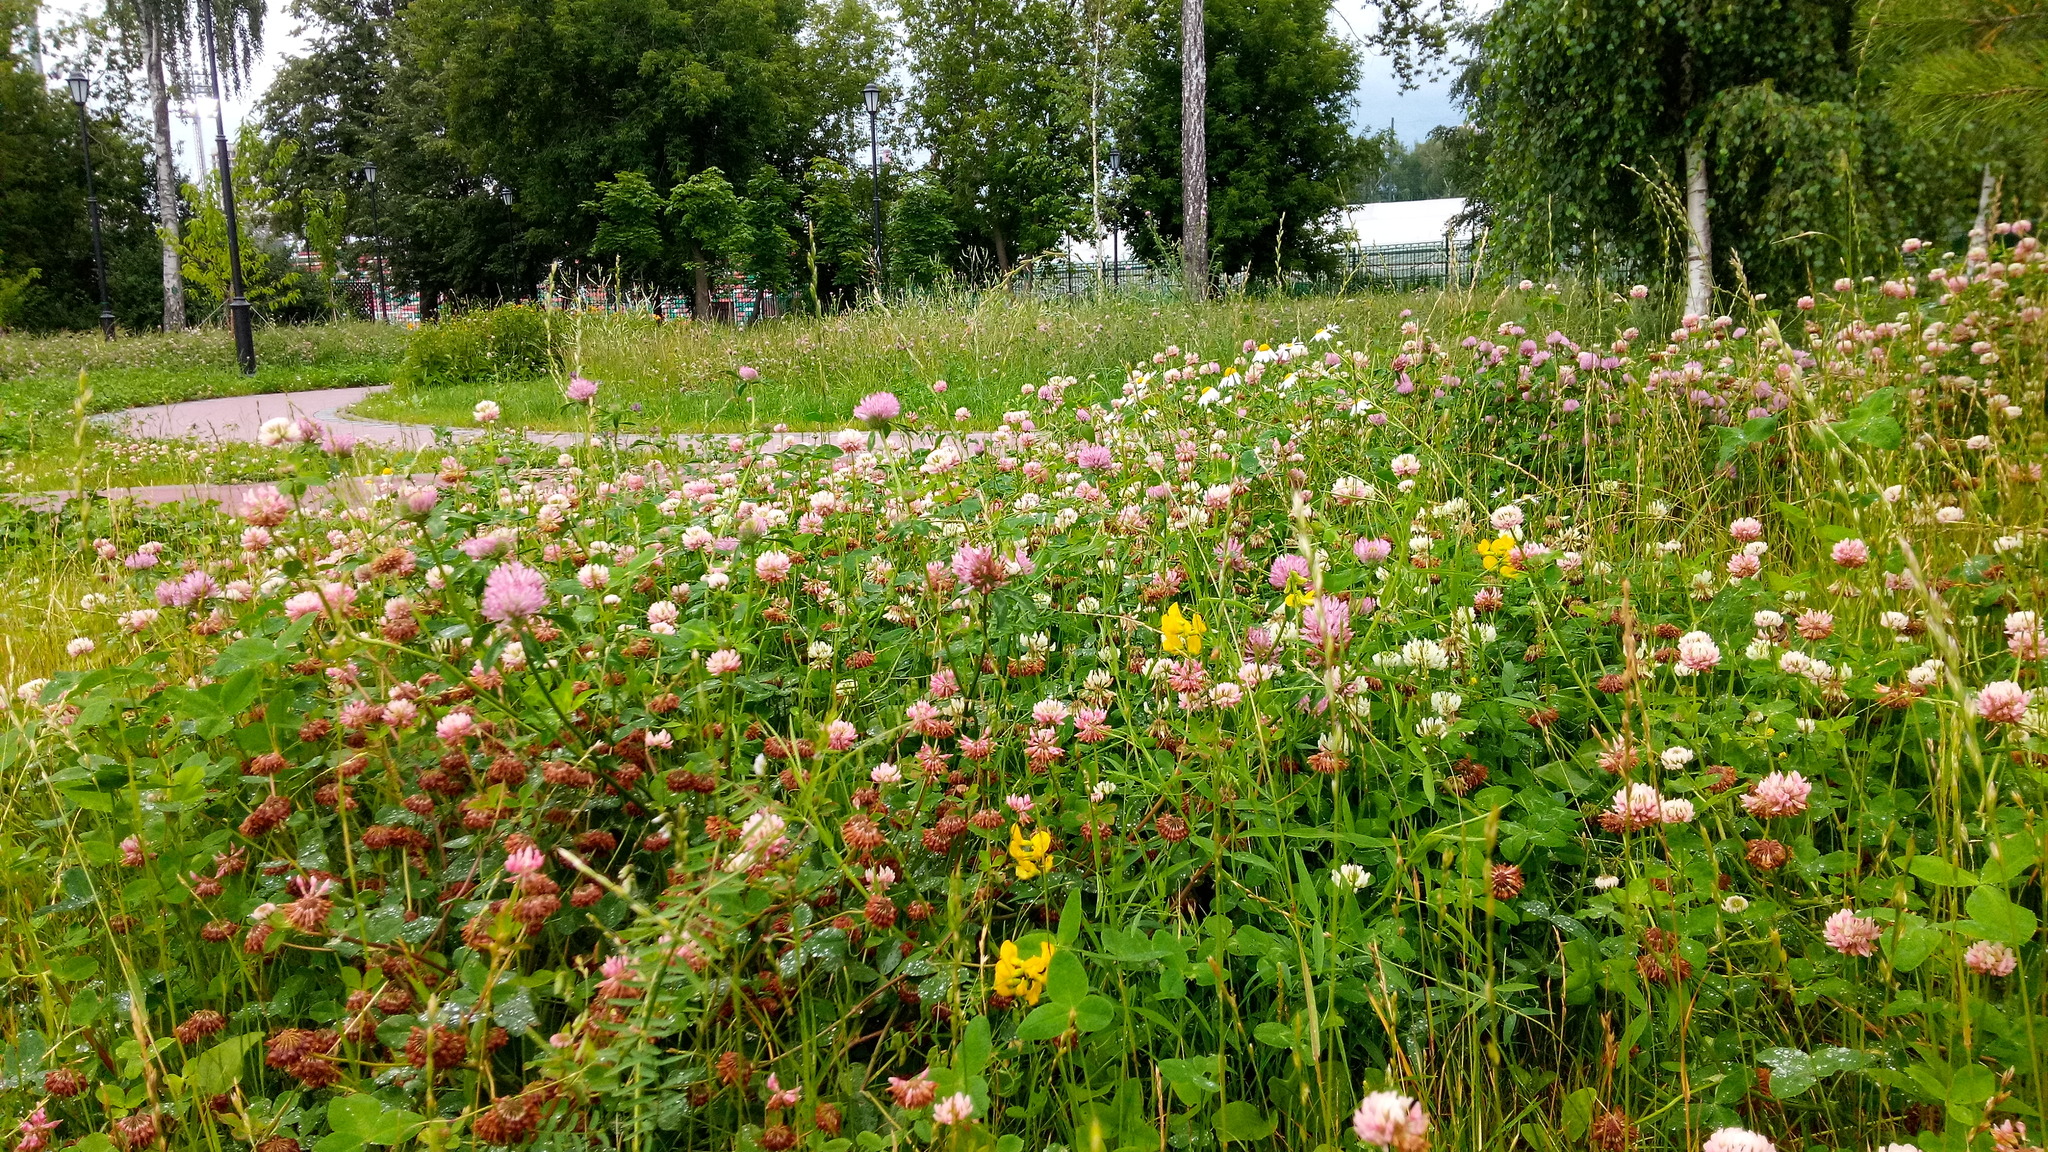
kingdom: Plantae
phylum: Tracheophyta
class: Magnoliopsida
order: Fabales
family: Fabaceae
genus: Lathyrus
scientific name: Lathyrus pratensis
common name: Meadow vetchling
